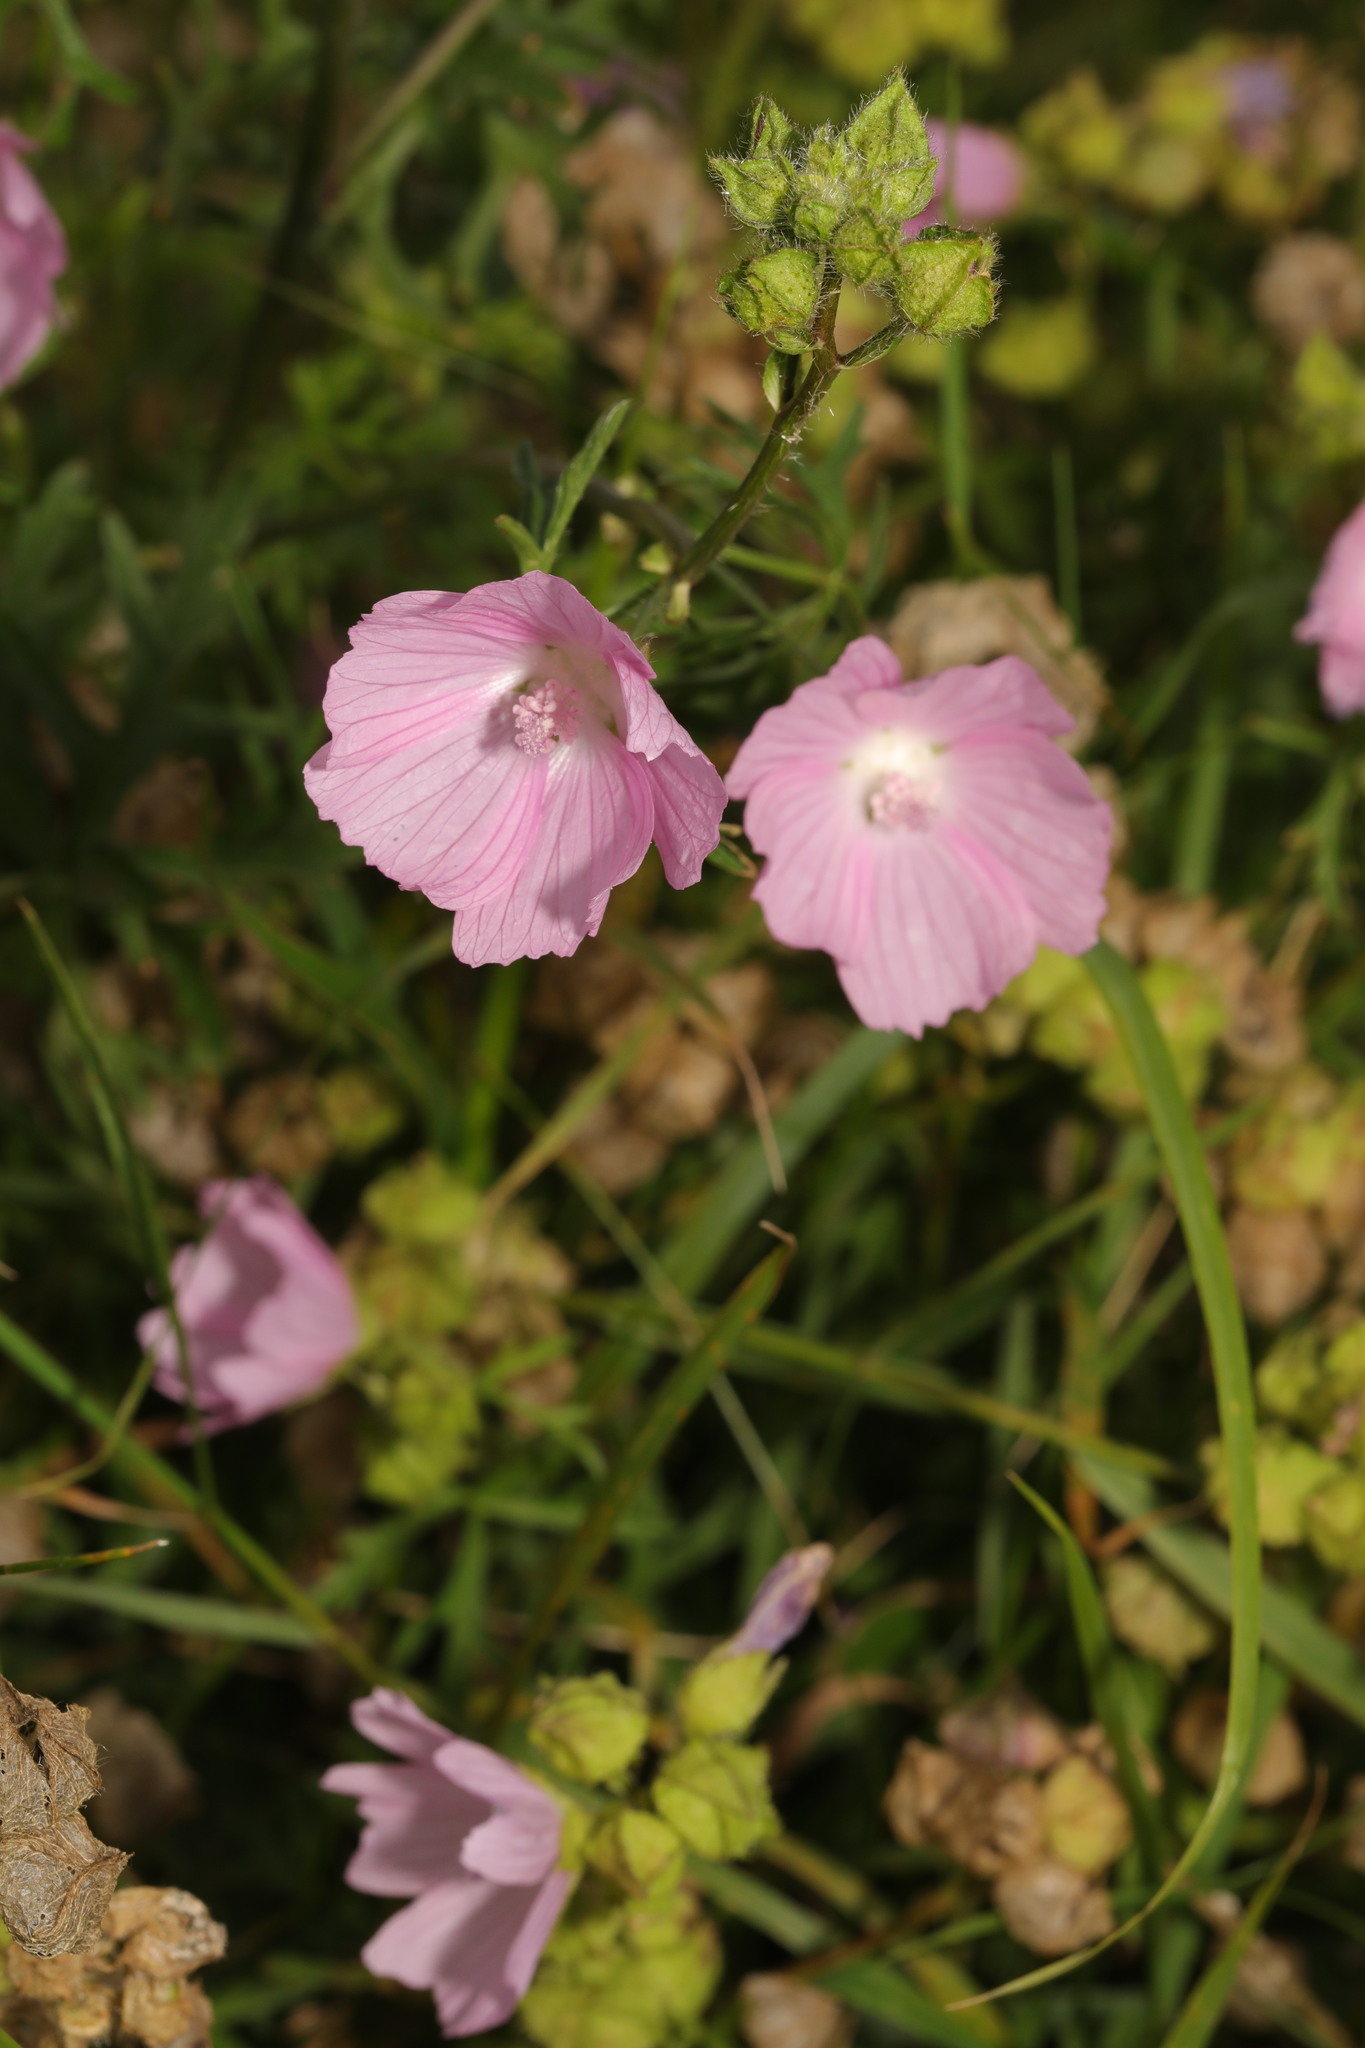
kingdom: Plantae
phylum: Tracheophyta
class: Magnoliopsida
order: Malvales
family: Malvaceae
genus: Malva
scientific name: Malva moschata
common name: Musk mallow
